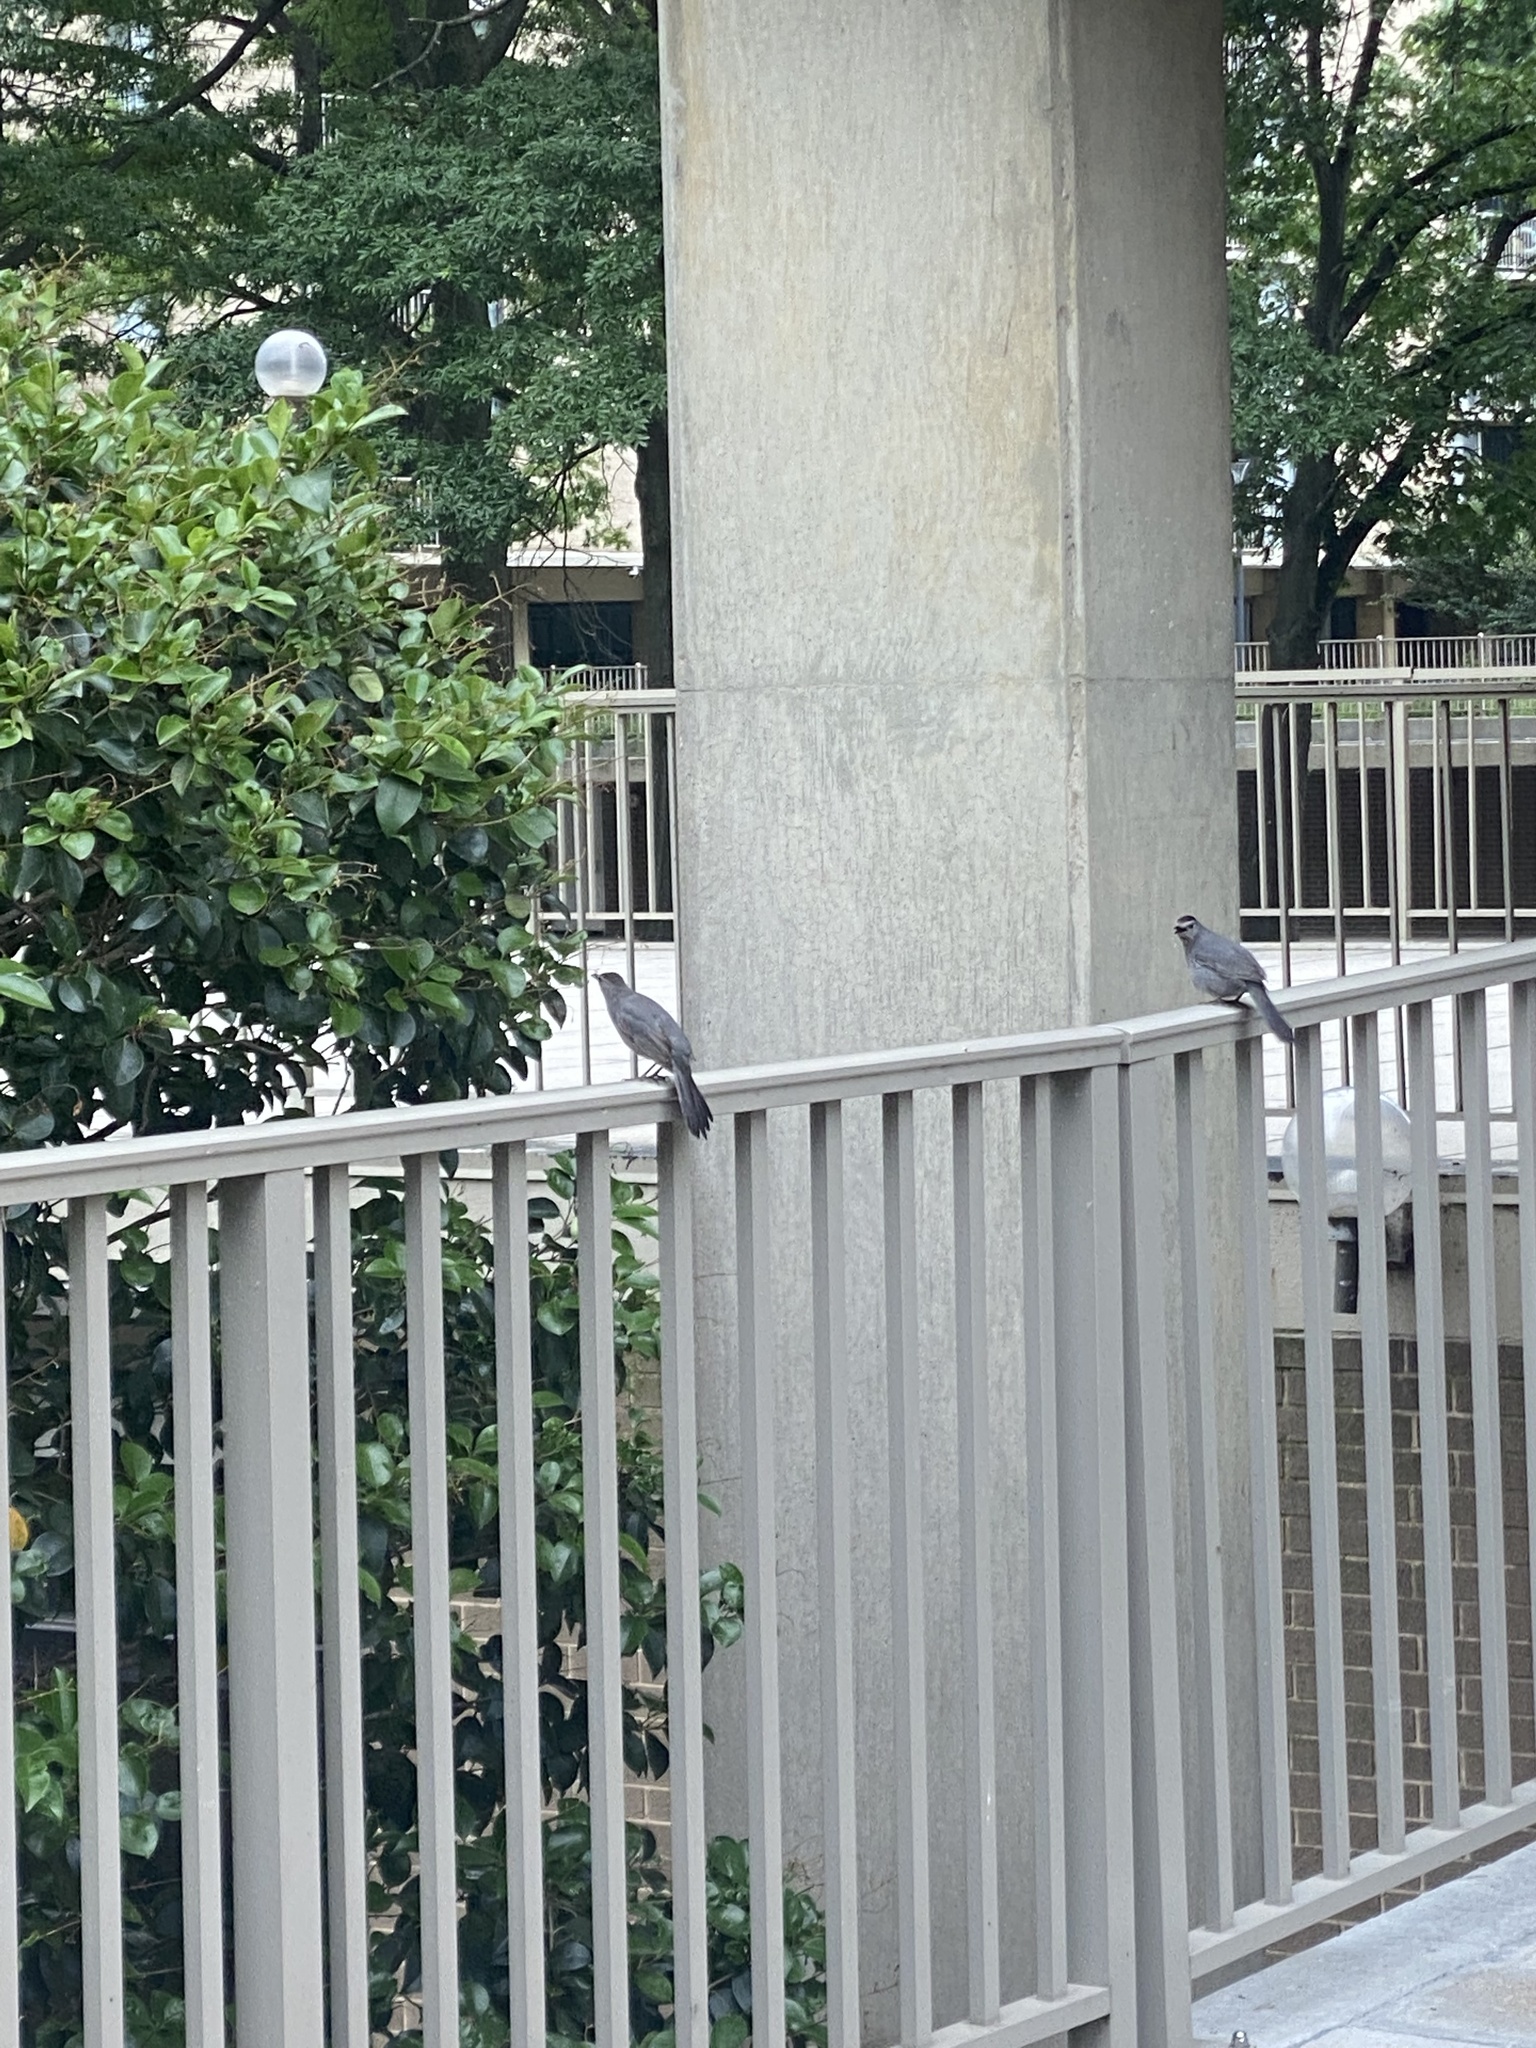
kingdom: Animalia
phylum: Chordata
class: Aves
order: Passeriformes
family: Mimidae
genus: Dumetella
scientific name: Dumetella carolinensis
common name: Gray catbird
